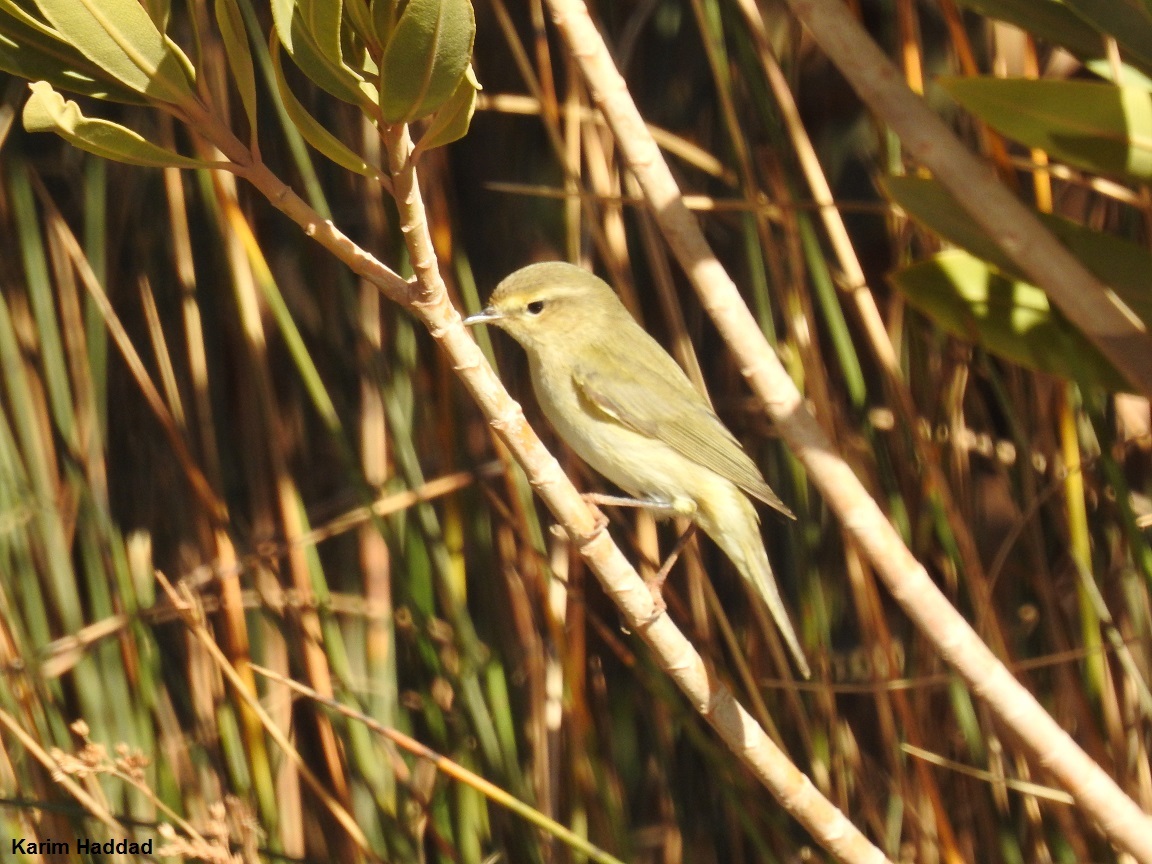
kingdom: Animalia
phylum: Chordata
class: Aves
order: Passeriformes
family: Phylloscopidae
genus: Phylloscopus
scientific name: Phylloscopus trochilus
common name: Willow warbler
